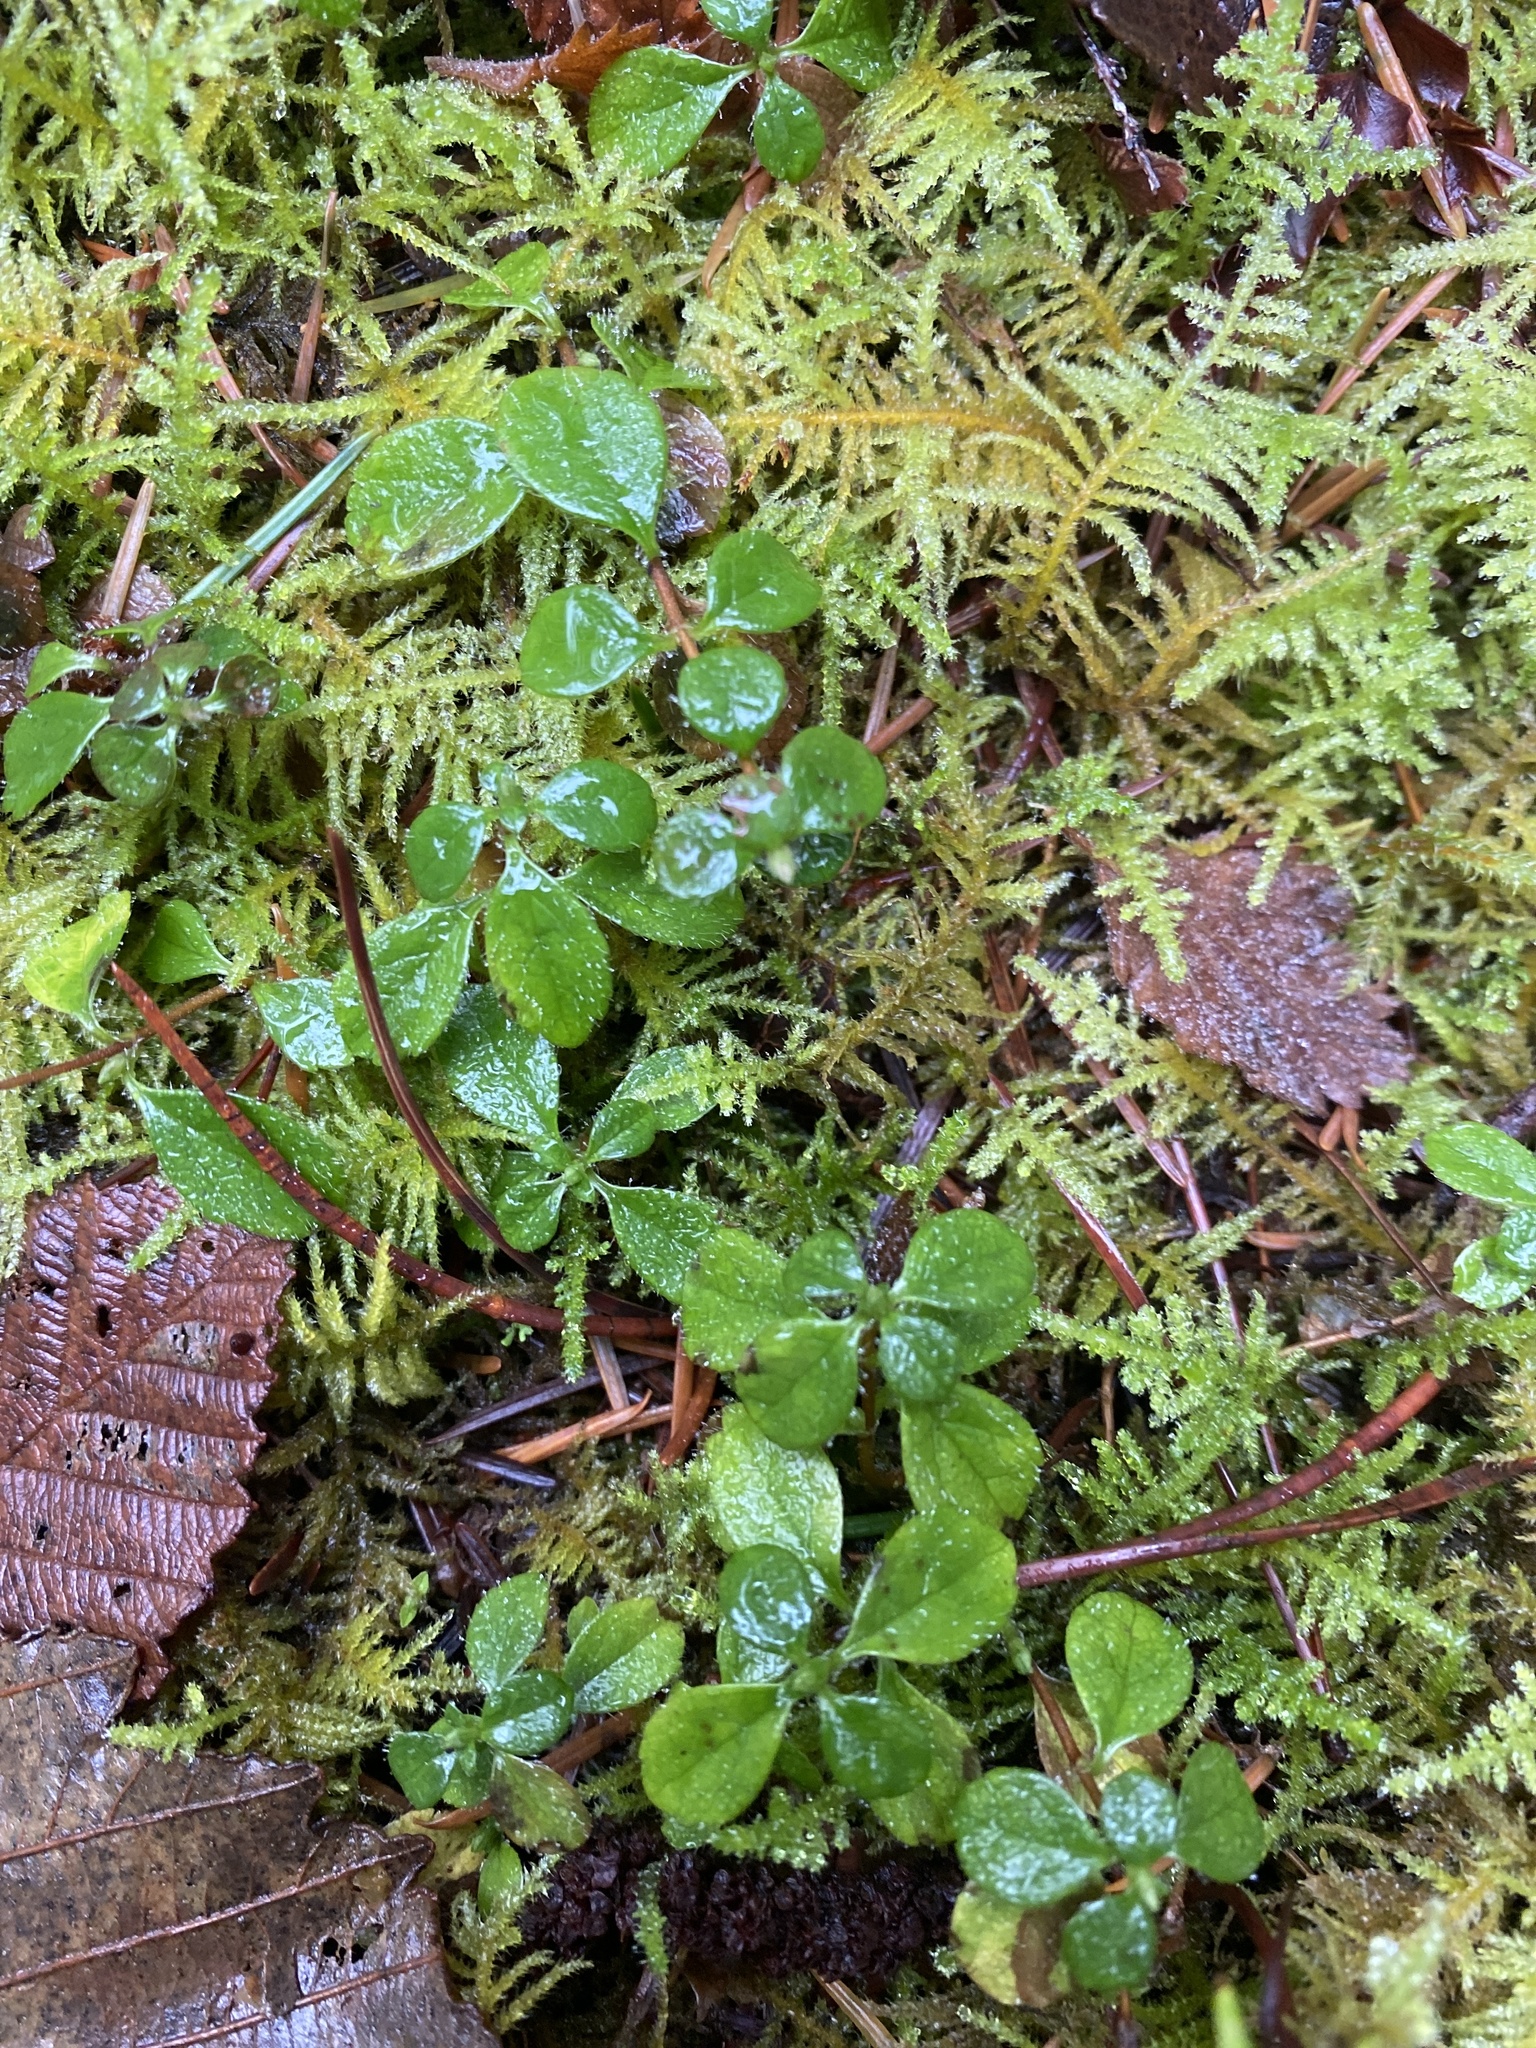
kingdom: Plantae
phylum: Tracheophyta
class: Magnoliopsida
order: Dipsacales
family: Caprifoliaceae
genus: Linnaea
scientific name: Linnaea borealis
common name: Twinflower
